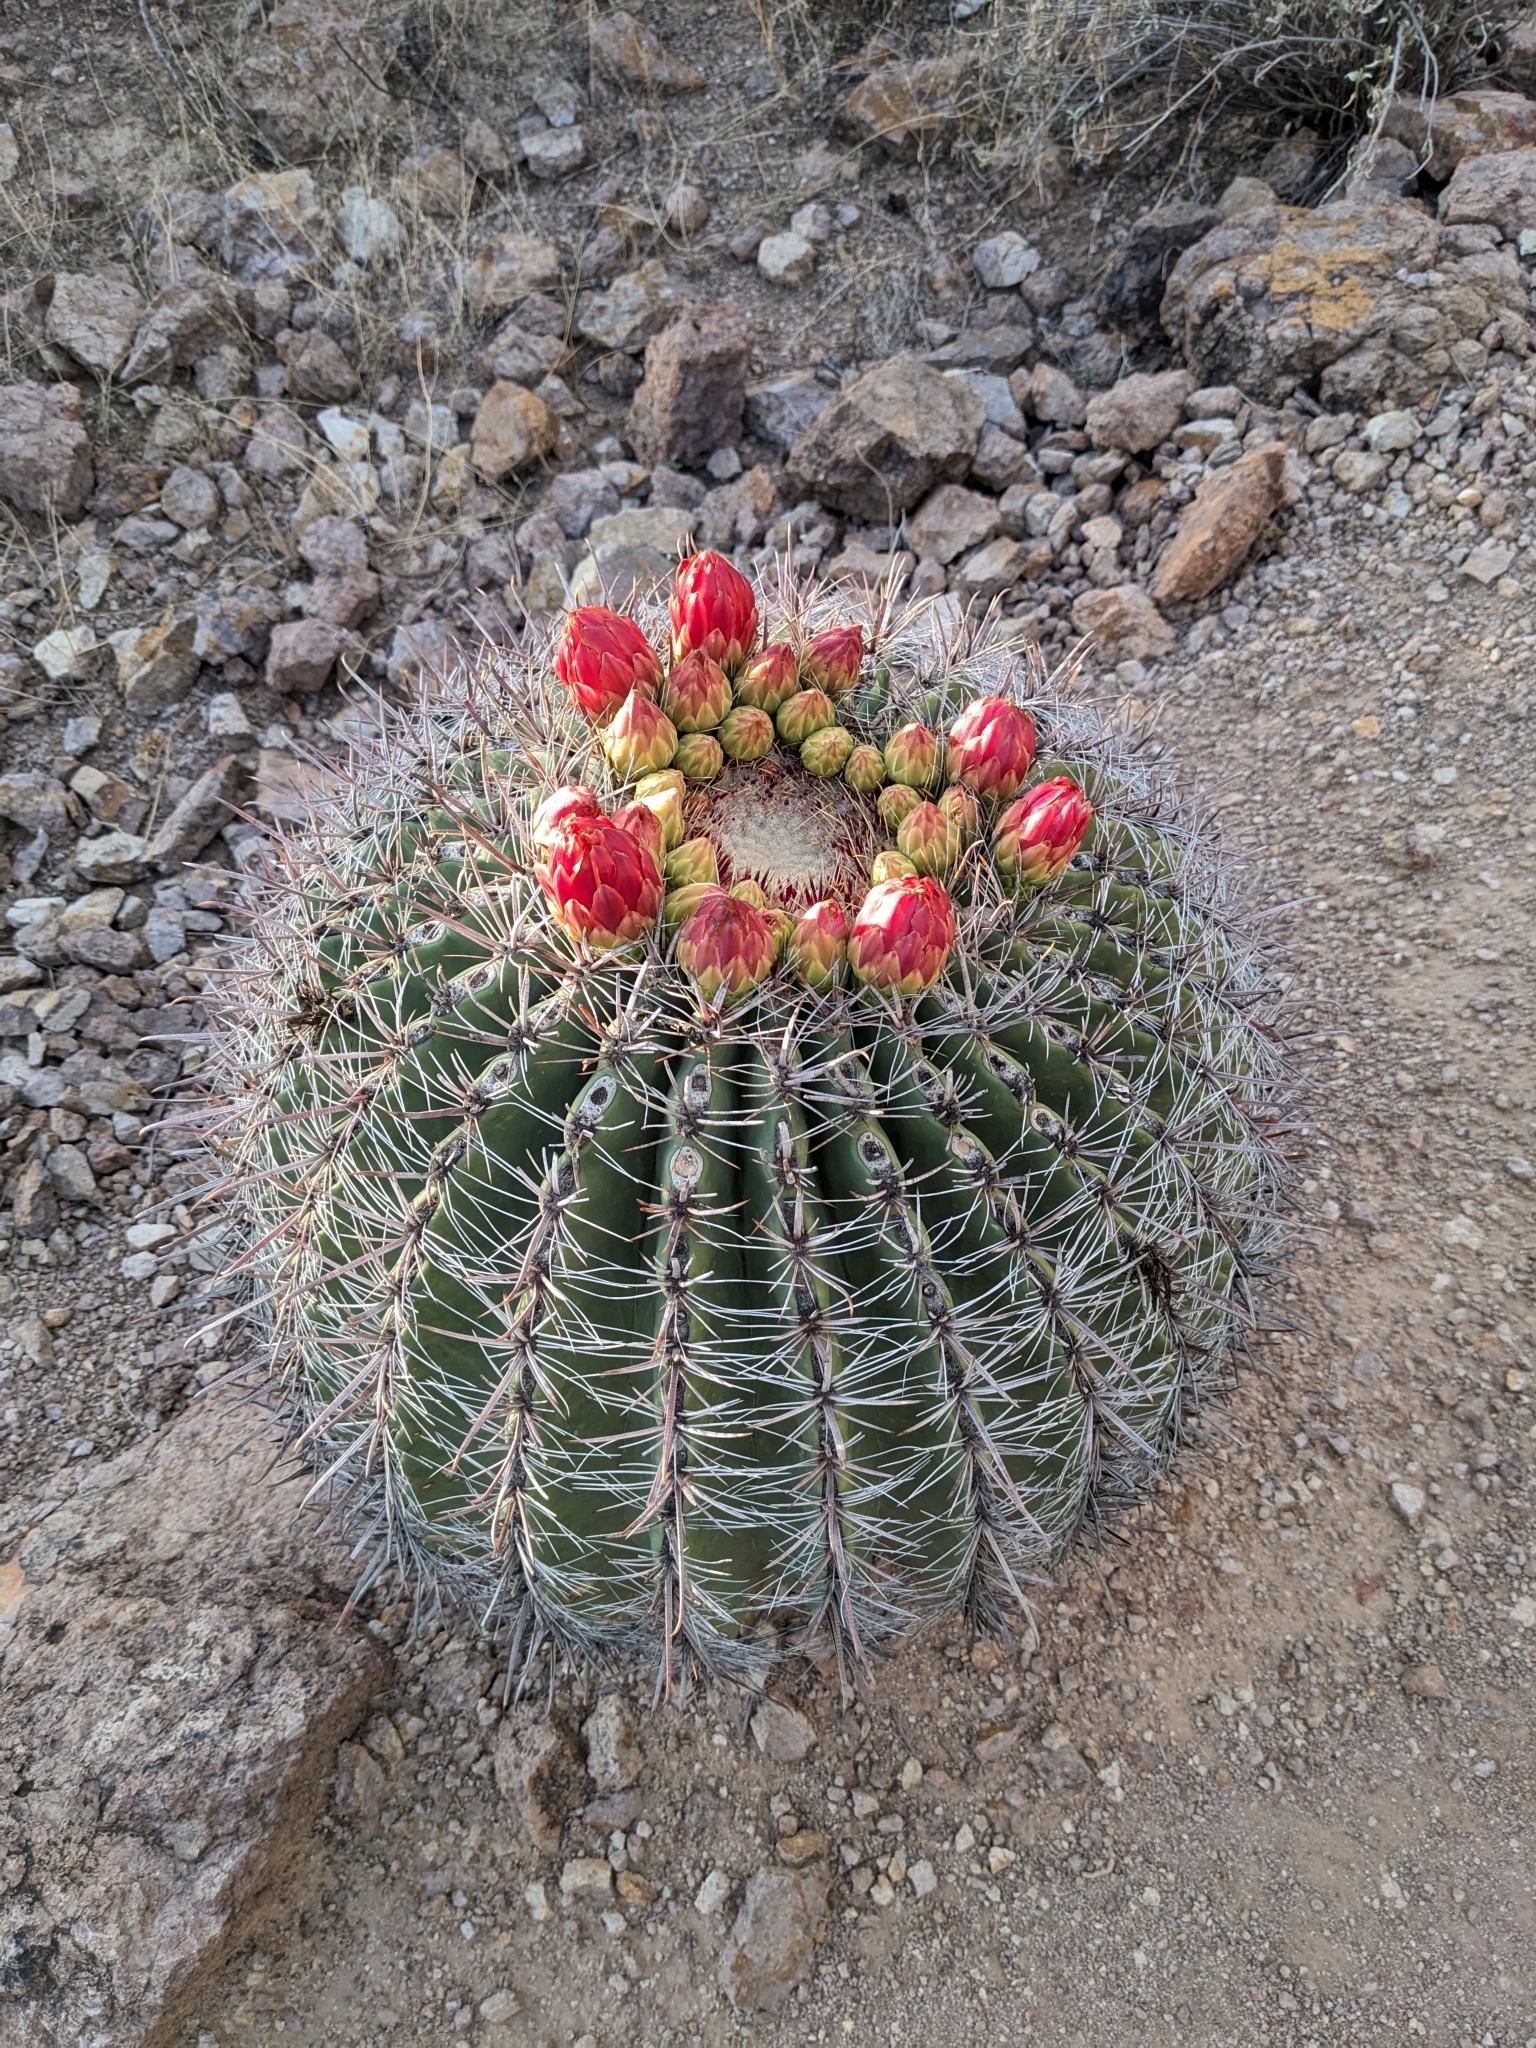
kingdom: Plantae
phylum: Tracheophyta
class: Magnoliopsida
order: Caryophyllales
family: Cactaceae
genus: Ferocactus
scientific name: Ferocactus wislizeni
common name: Candy barrel cactus
